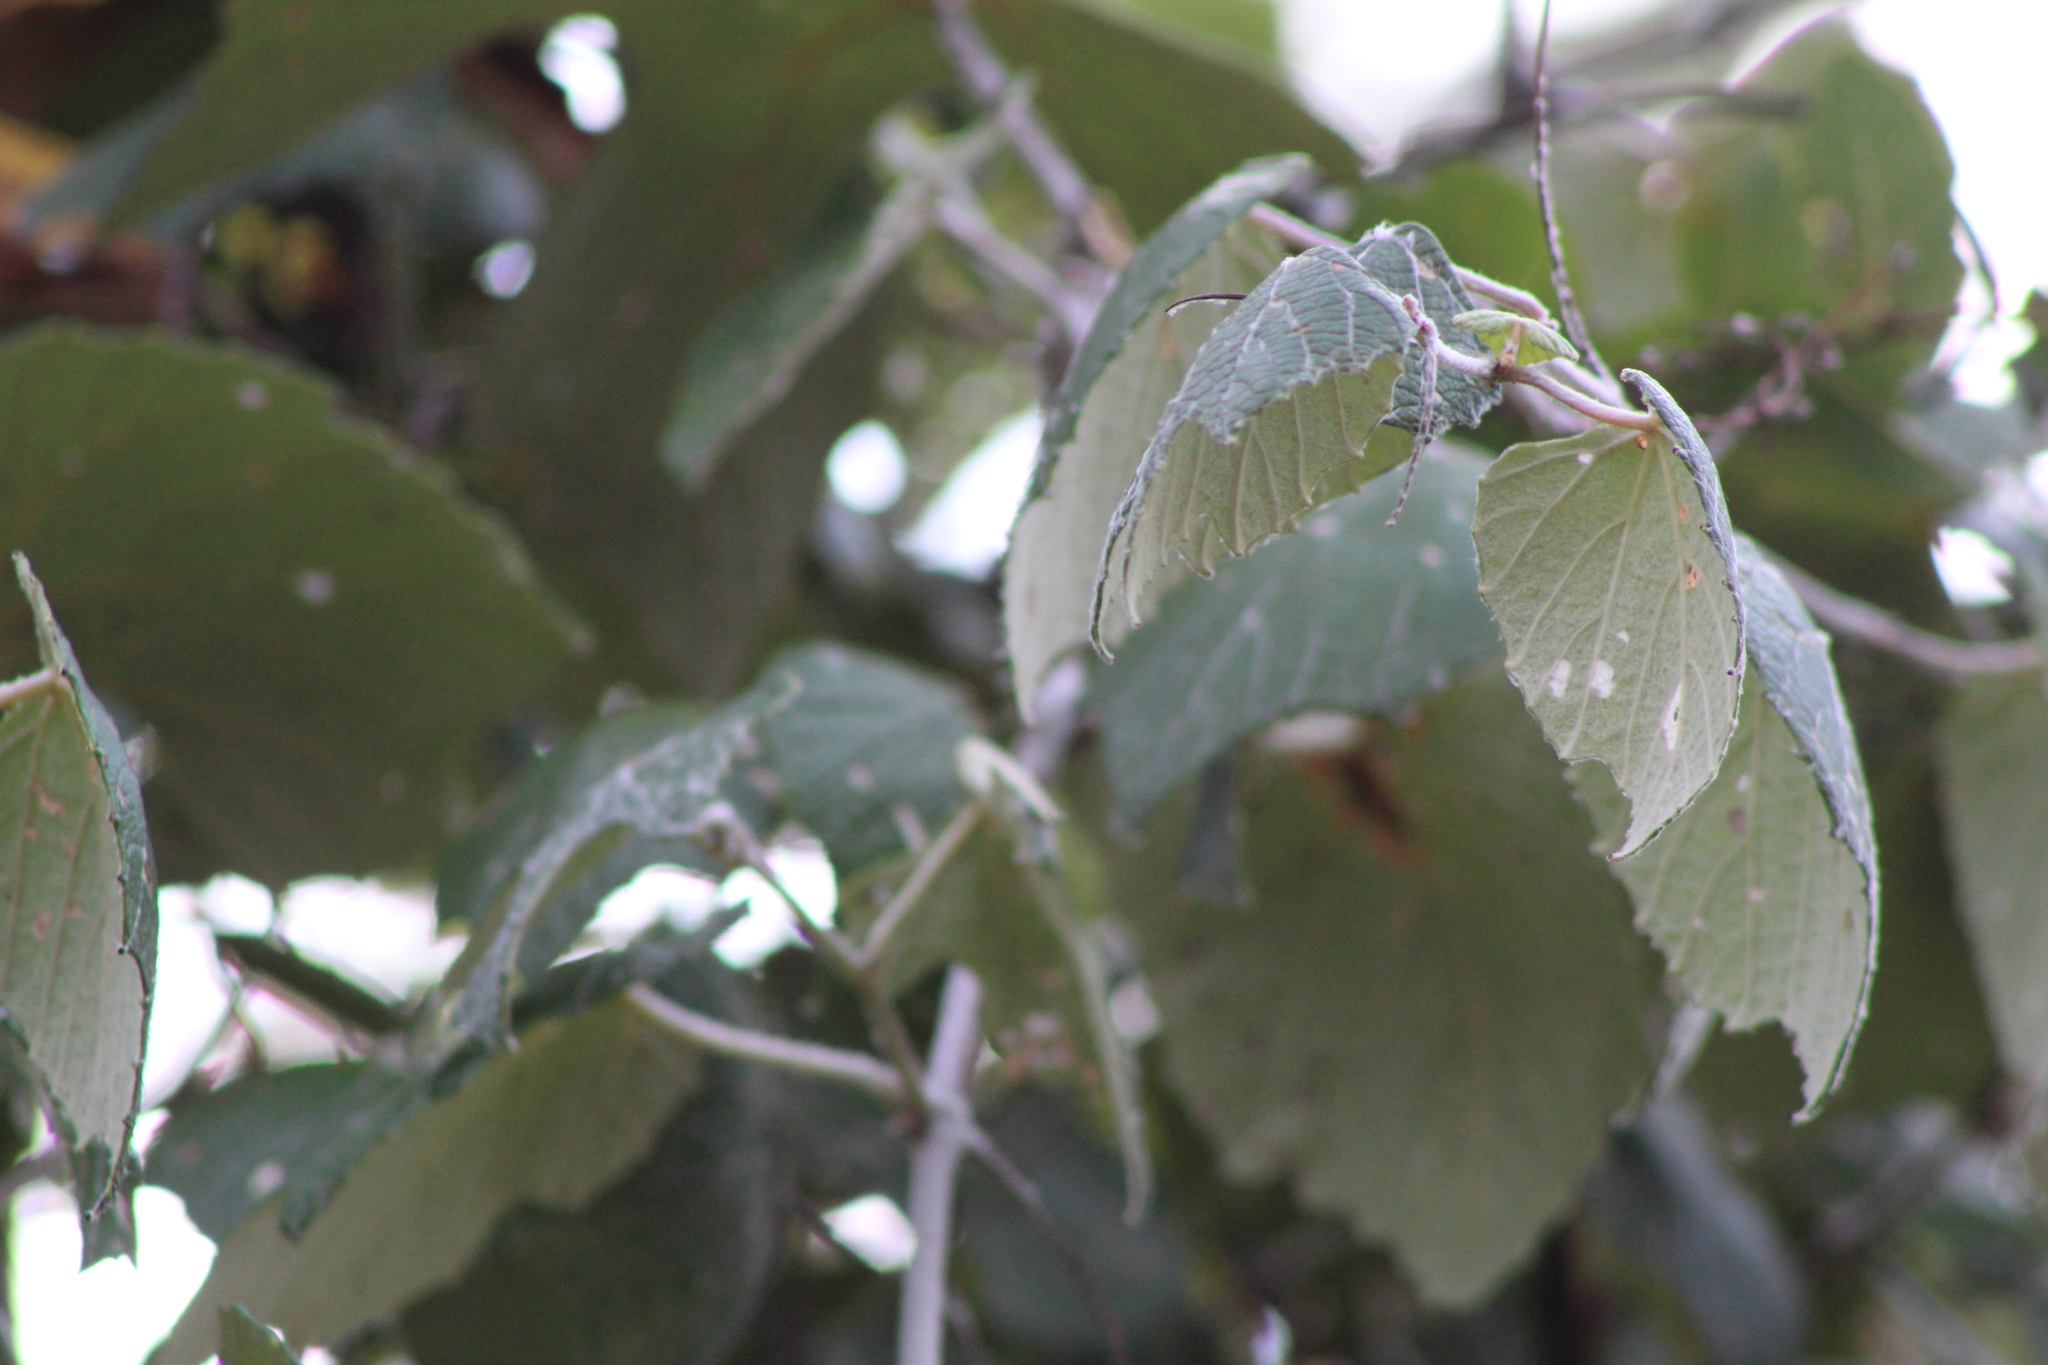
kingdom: Plantae
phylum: Tracheophyta
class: Magnoliopsida
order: Vitales
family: Vitaceae
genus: Vitis
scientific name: Vitis mustangensis
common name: Mustang grape
